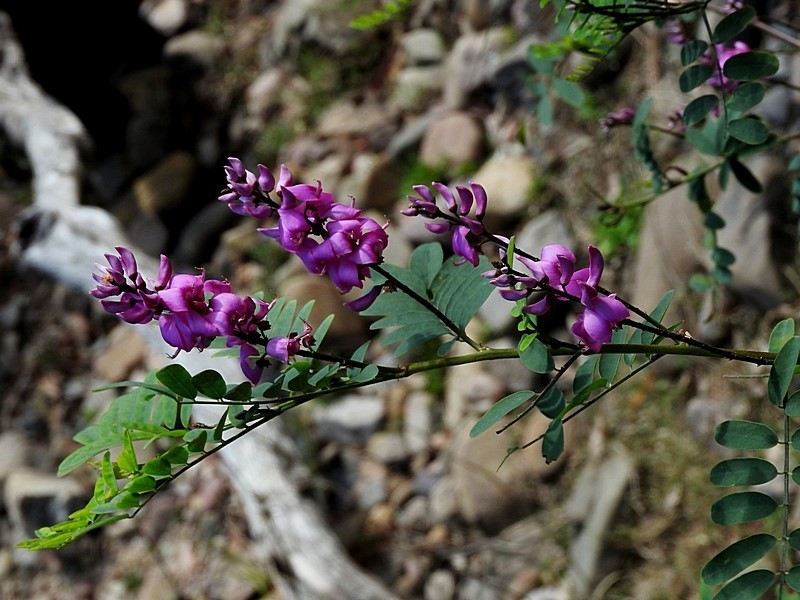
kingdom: Plantae
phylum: Tracheophyta
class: Magnoliopsida
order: Fabales
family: Fabaceae
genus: Indigofera
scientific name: Indigofera australis
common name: Australian indigo
